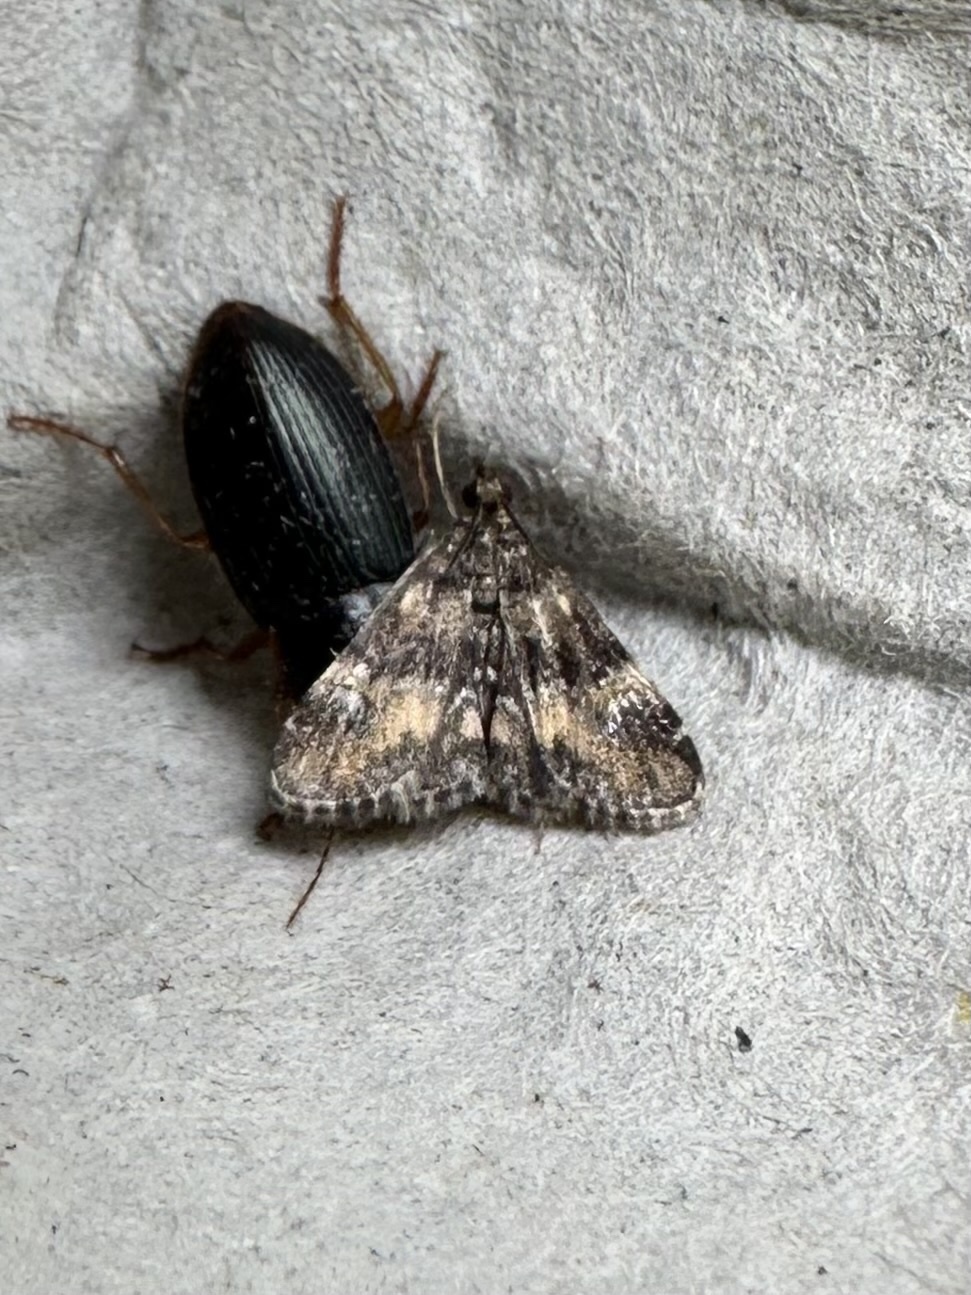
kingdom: Animalia
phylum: Arthropoda
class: Insecta
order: Lepidoptera
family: Crambidae
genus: Elophila
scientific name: Elophila obliteralis
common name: Waterlily leafcutter moth
